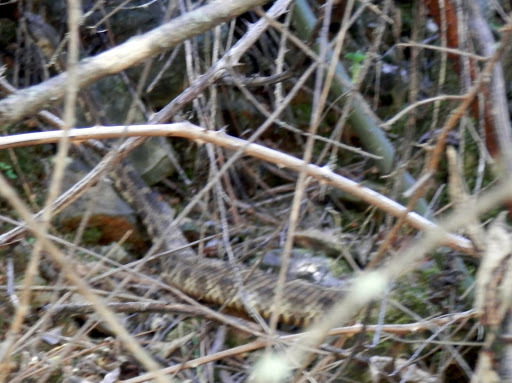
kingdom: Animalia
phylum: Chordata
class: Squamata
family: Viperidae
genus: Crotalus
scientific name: Crotalus oreganus
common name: Abyssus
